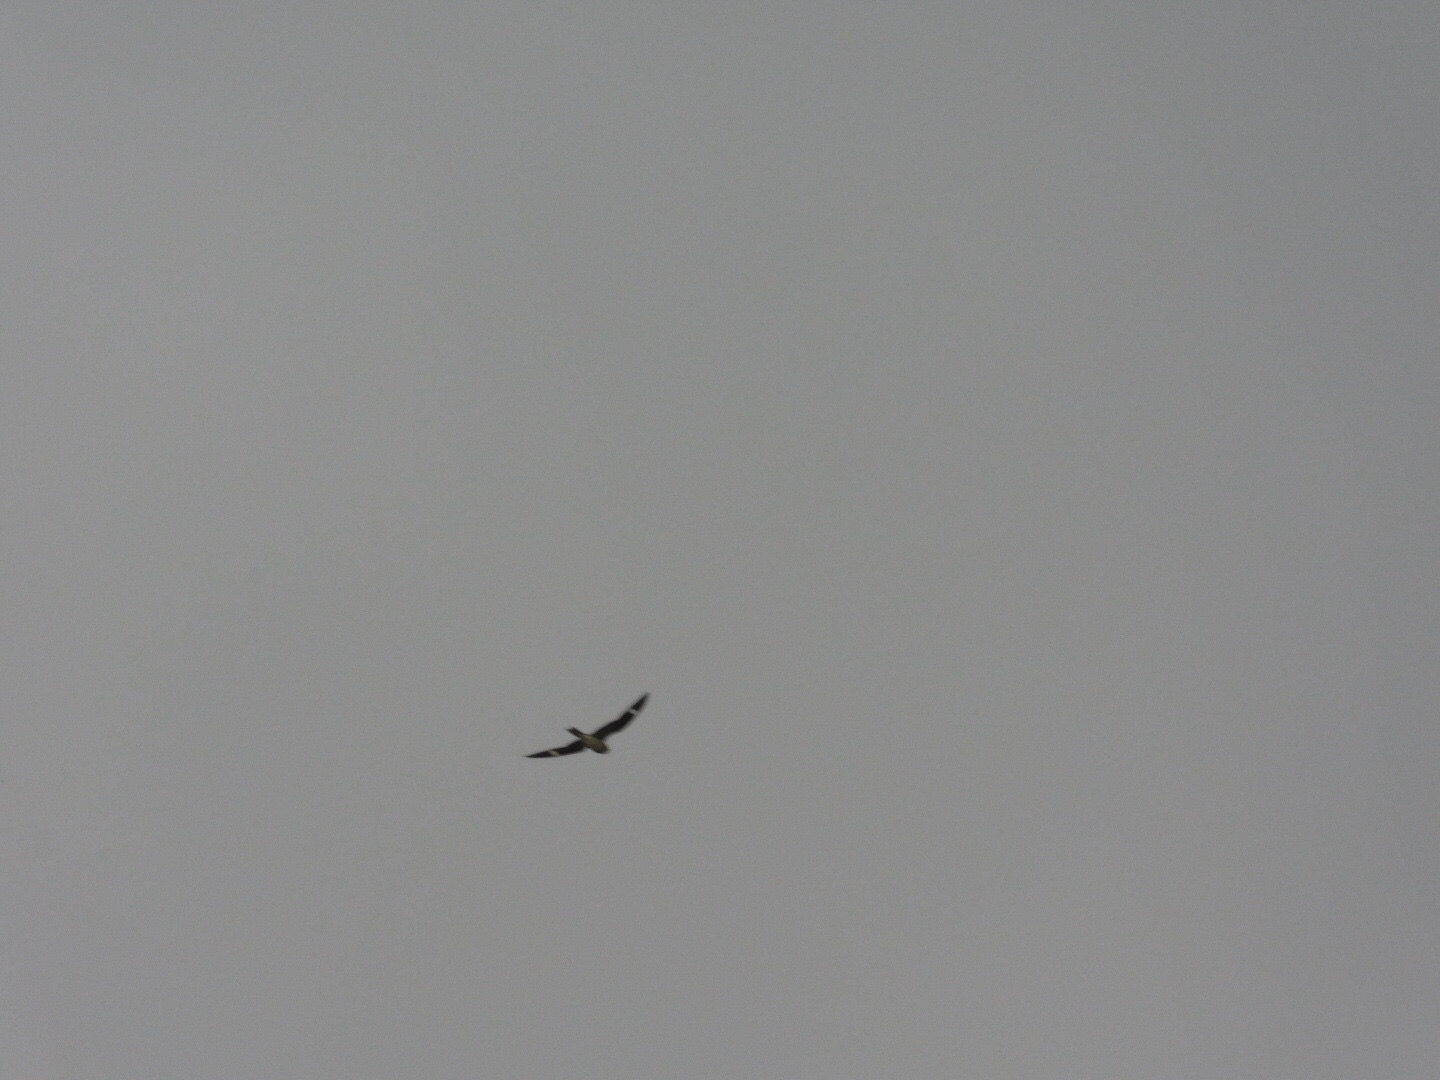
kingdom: Animalia
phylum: Chordata
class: Aves
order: Caprimulgiformes
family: Caprimulgidae
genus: Chordeiles
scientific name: Chordeiles minor
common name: Common nighthawk
